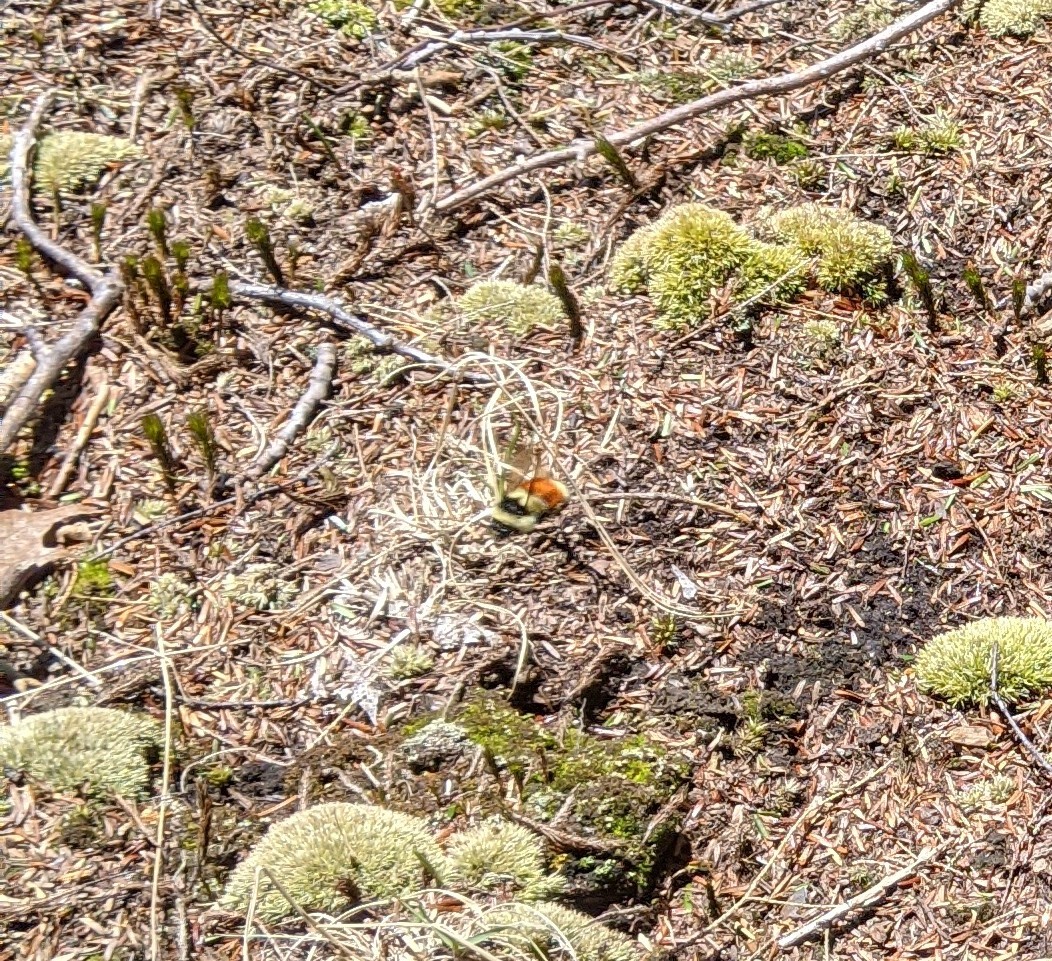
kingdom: Animalia
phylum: Arthropoda
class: Insecta
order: Hymenoptera
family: Apidae
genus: Bombus
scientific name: Bombus ternarius
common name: Tri-colored bumble bee
